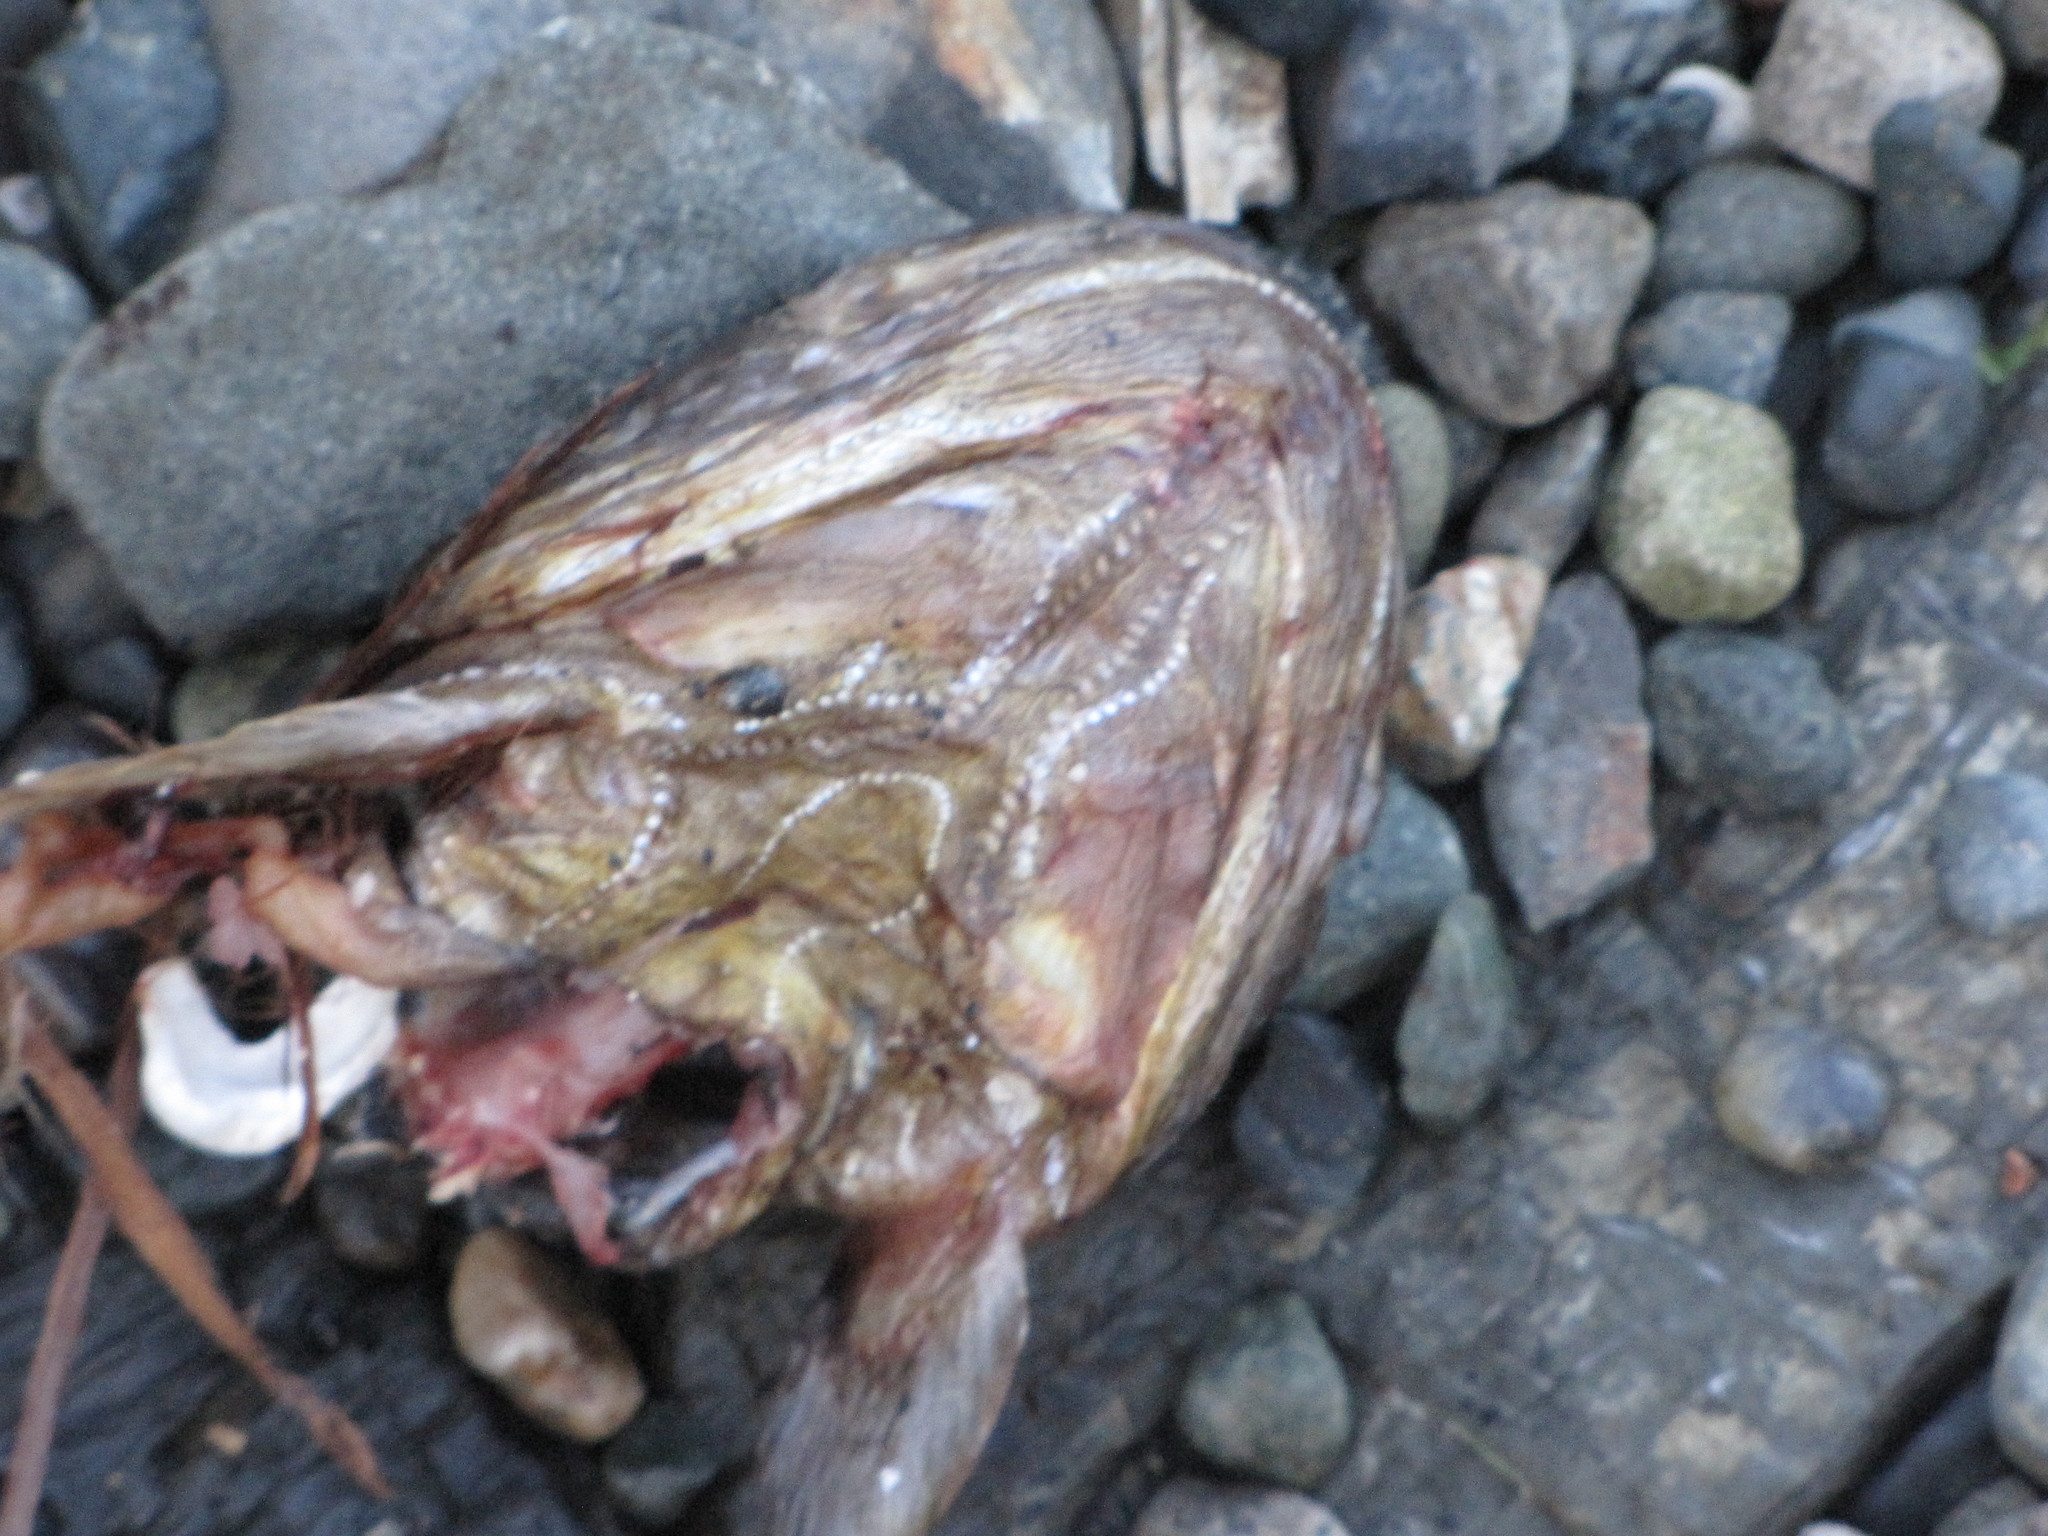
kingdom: Animalia
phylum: Chordata
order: Batrachoidiformes
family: Batrachoididae
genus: Porichthys
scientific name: Porichthys notatus
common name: Plainfin midshipman
